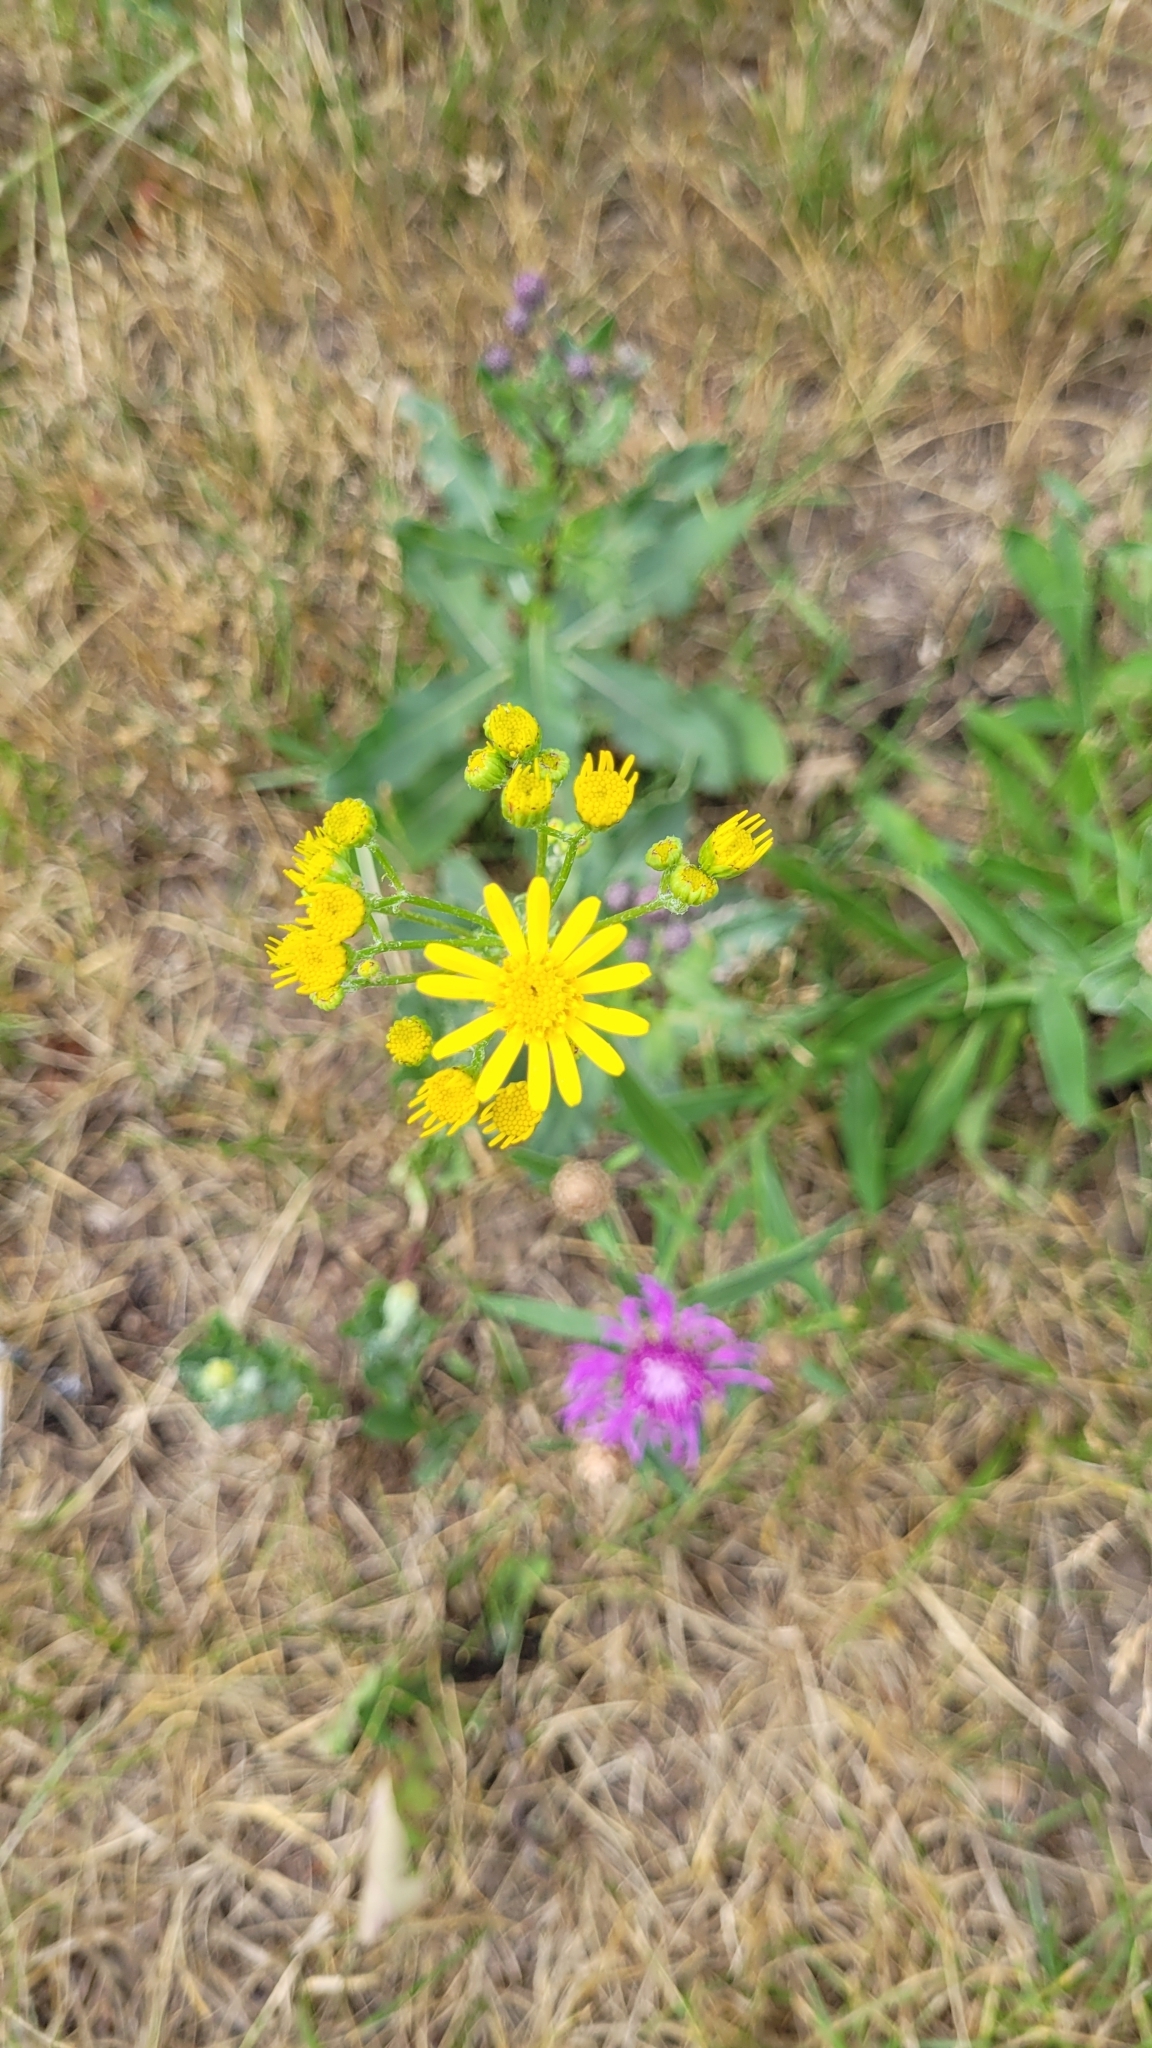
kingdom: Plantae
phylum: Tracheophyta
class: Magnoliopsida
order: Asterales
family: Asteraceae
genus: Jacobaea
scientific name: Jacobaea vulgaris
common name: Stinking willie
